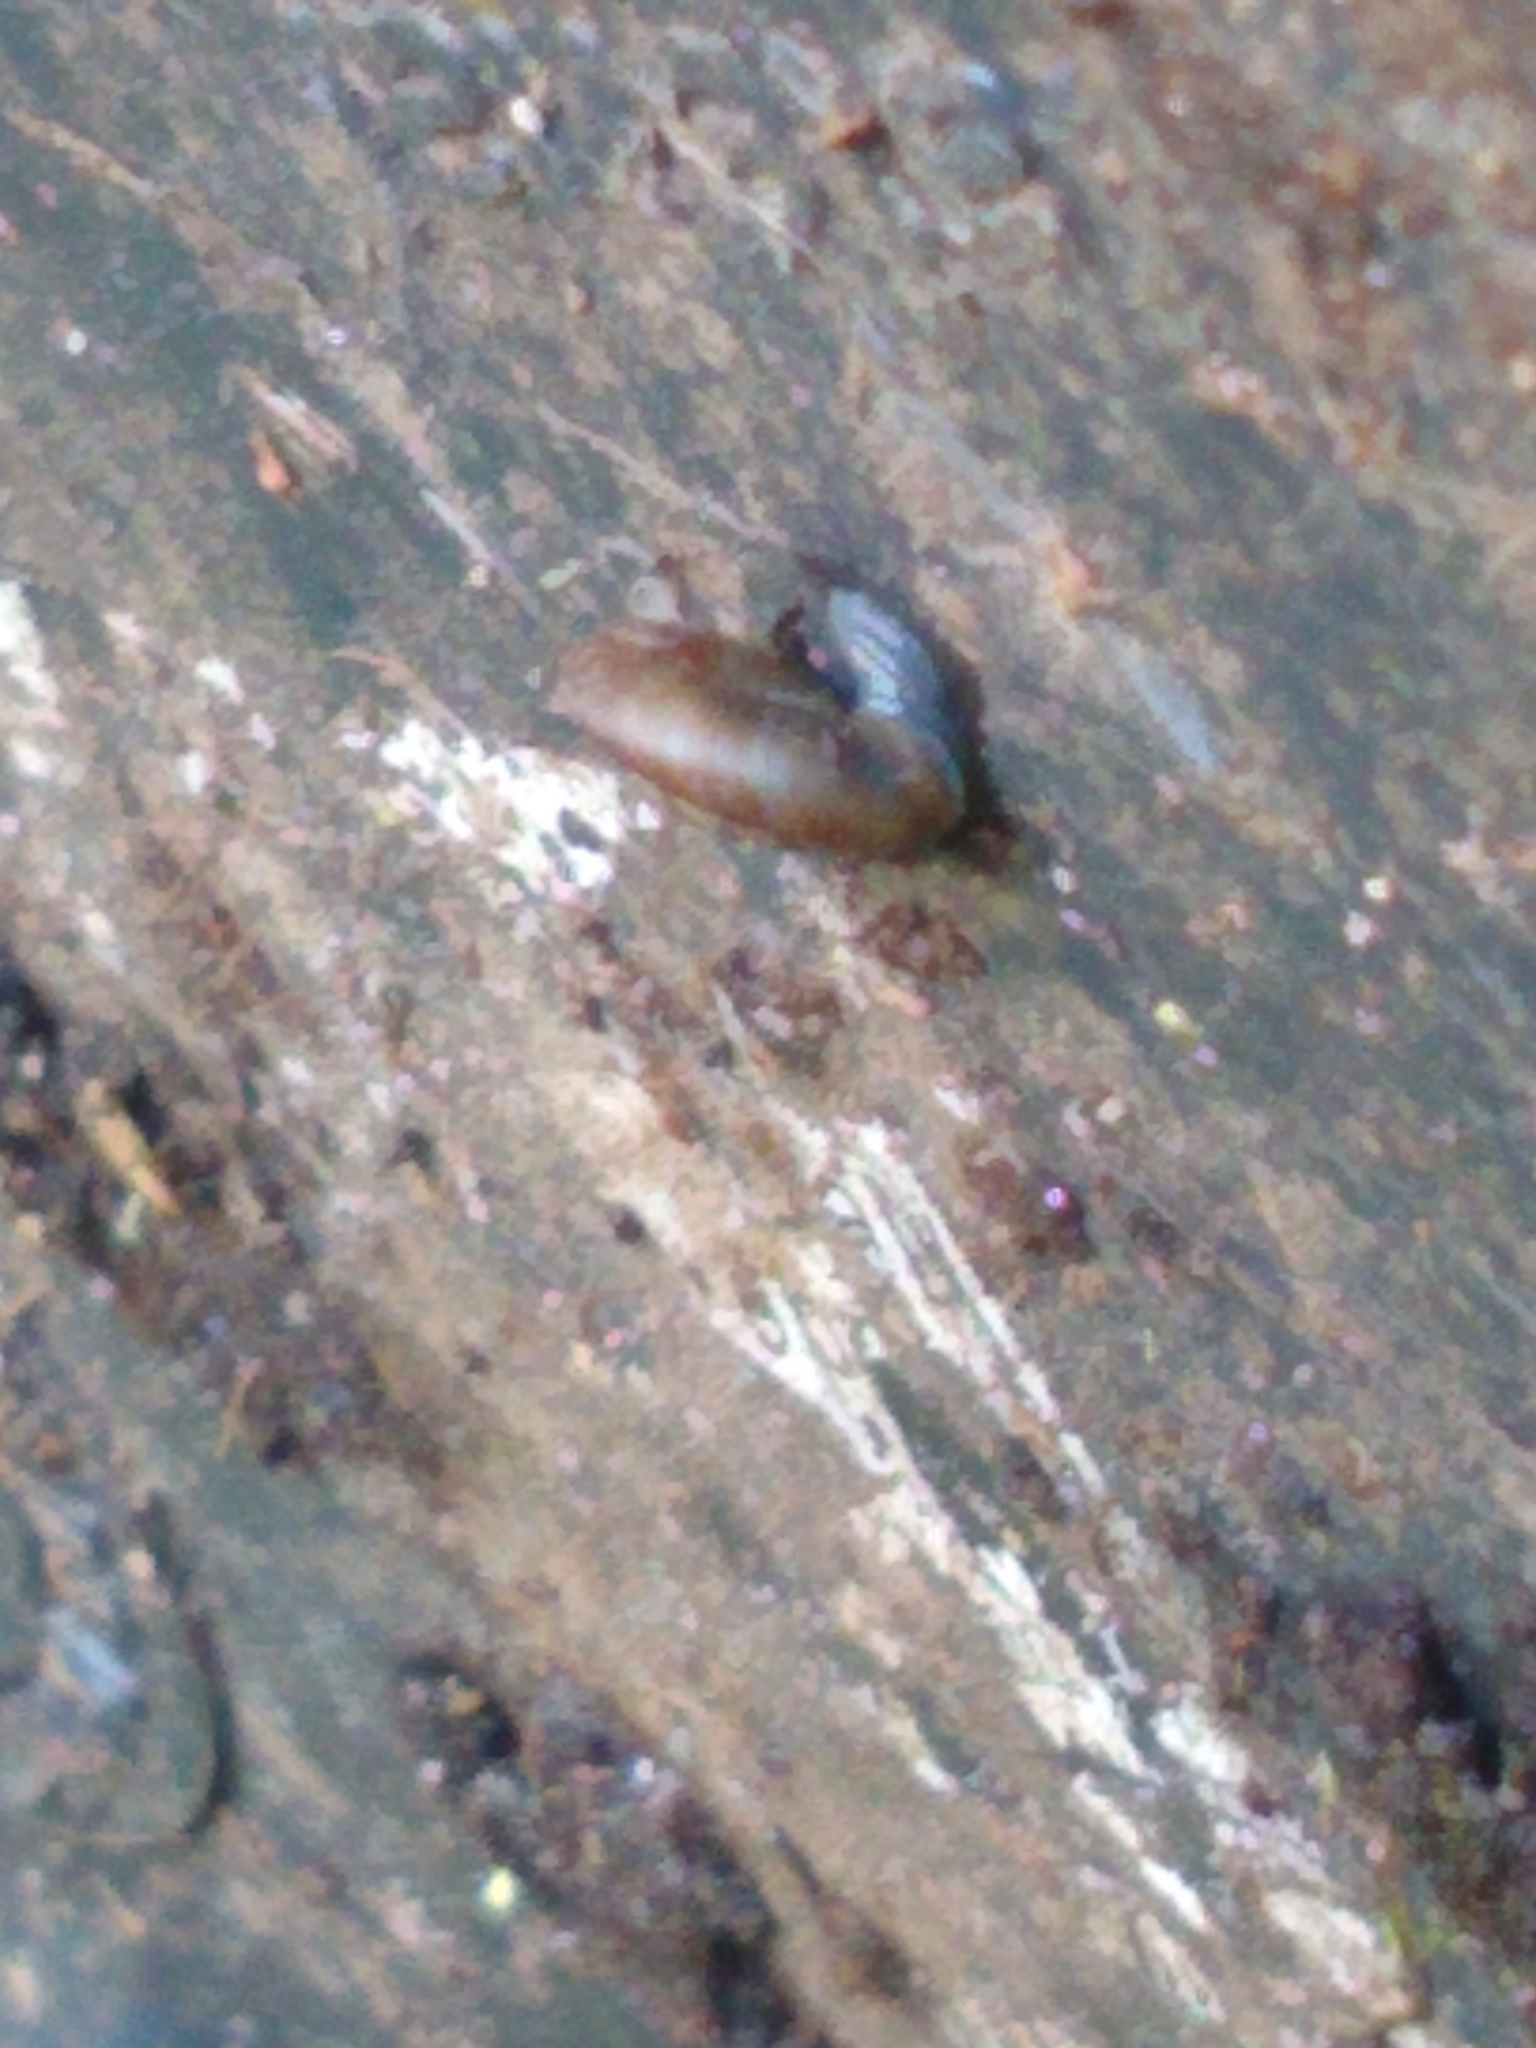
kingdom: Animalia
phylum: Mollusca
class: Gastropoda
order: Stylommatophora
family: Discidae
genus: Discus
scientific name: Discus rotundatus
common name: Rounded snail
